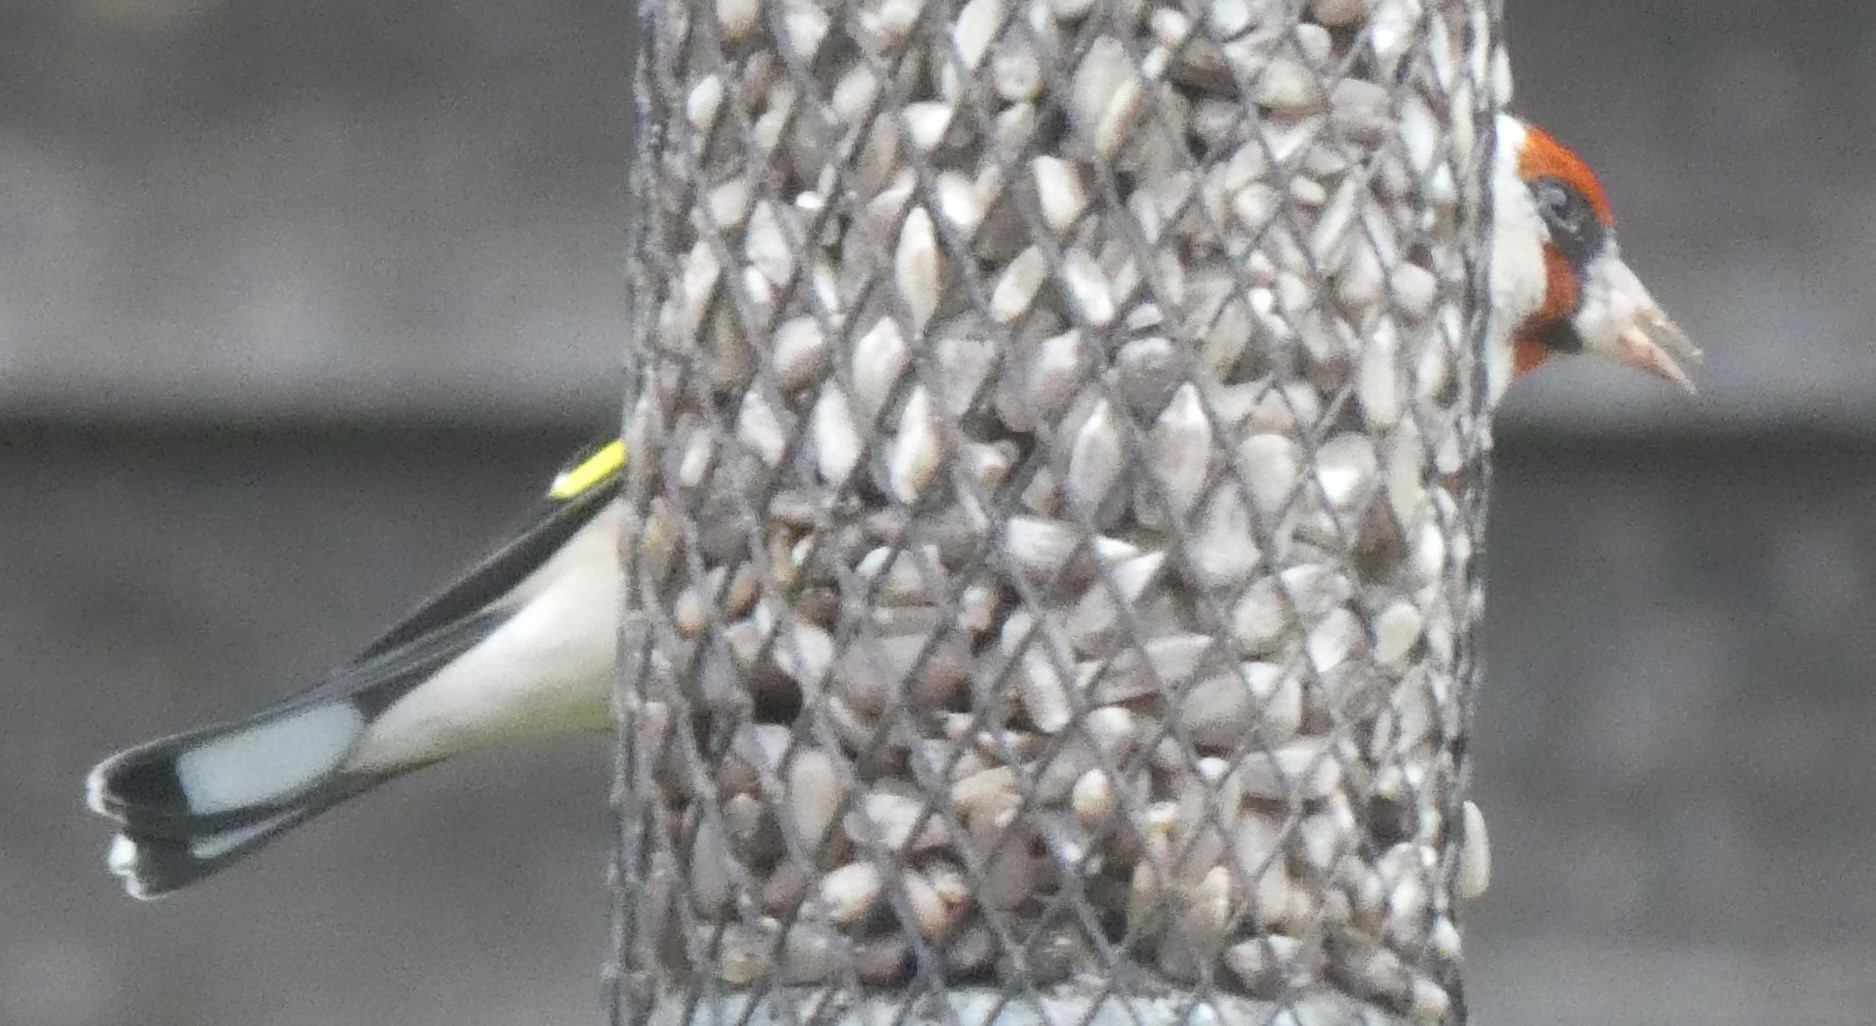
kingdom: Animalia
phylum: Chordata
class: Aves
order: Passeriformes
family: Fringillidae
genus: Carduelis
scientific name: Carduelis carduelis
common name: European goldfinch
